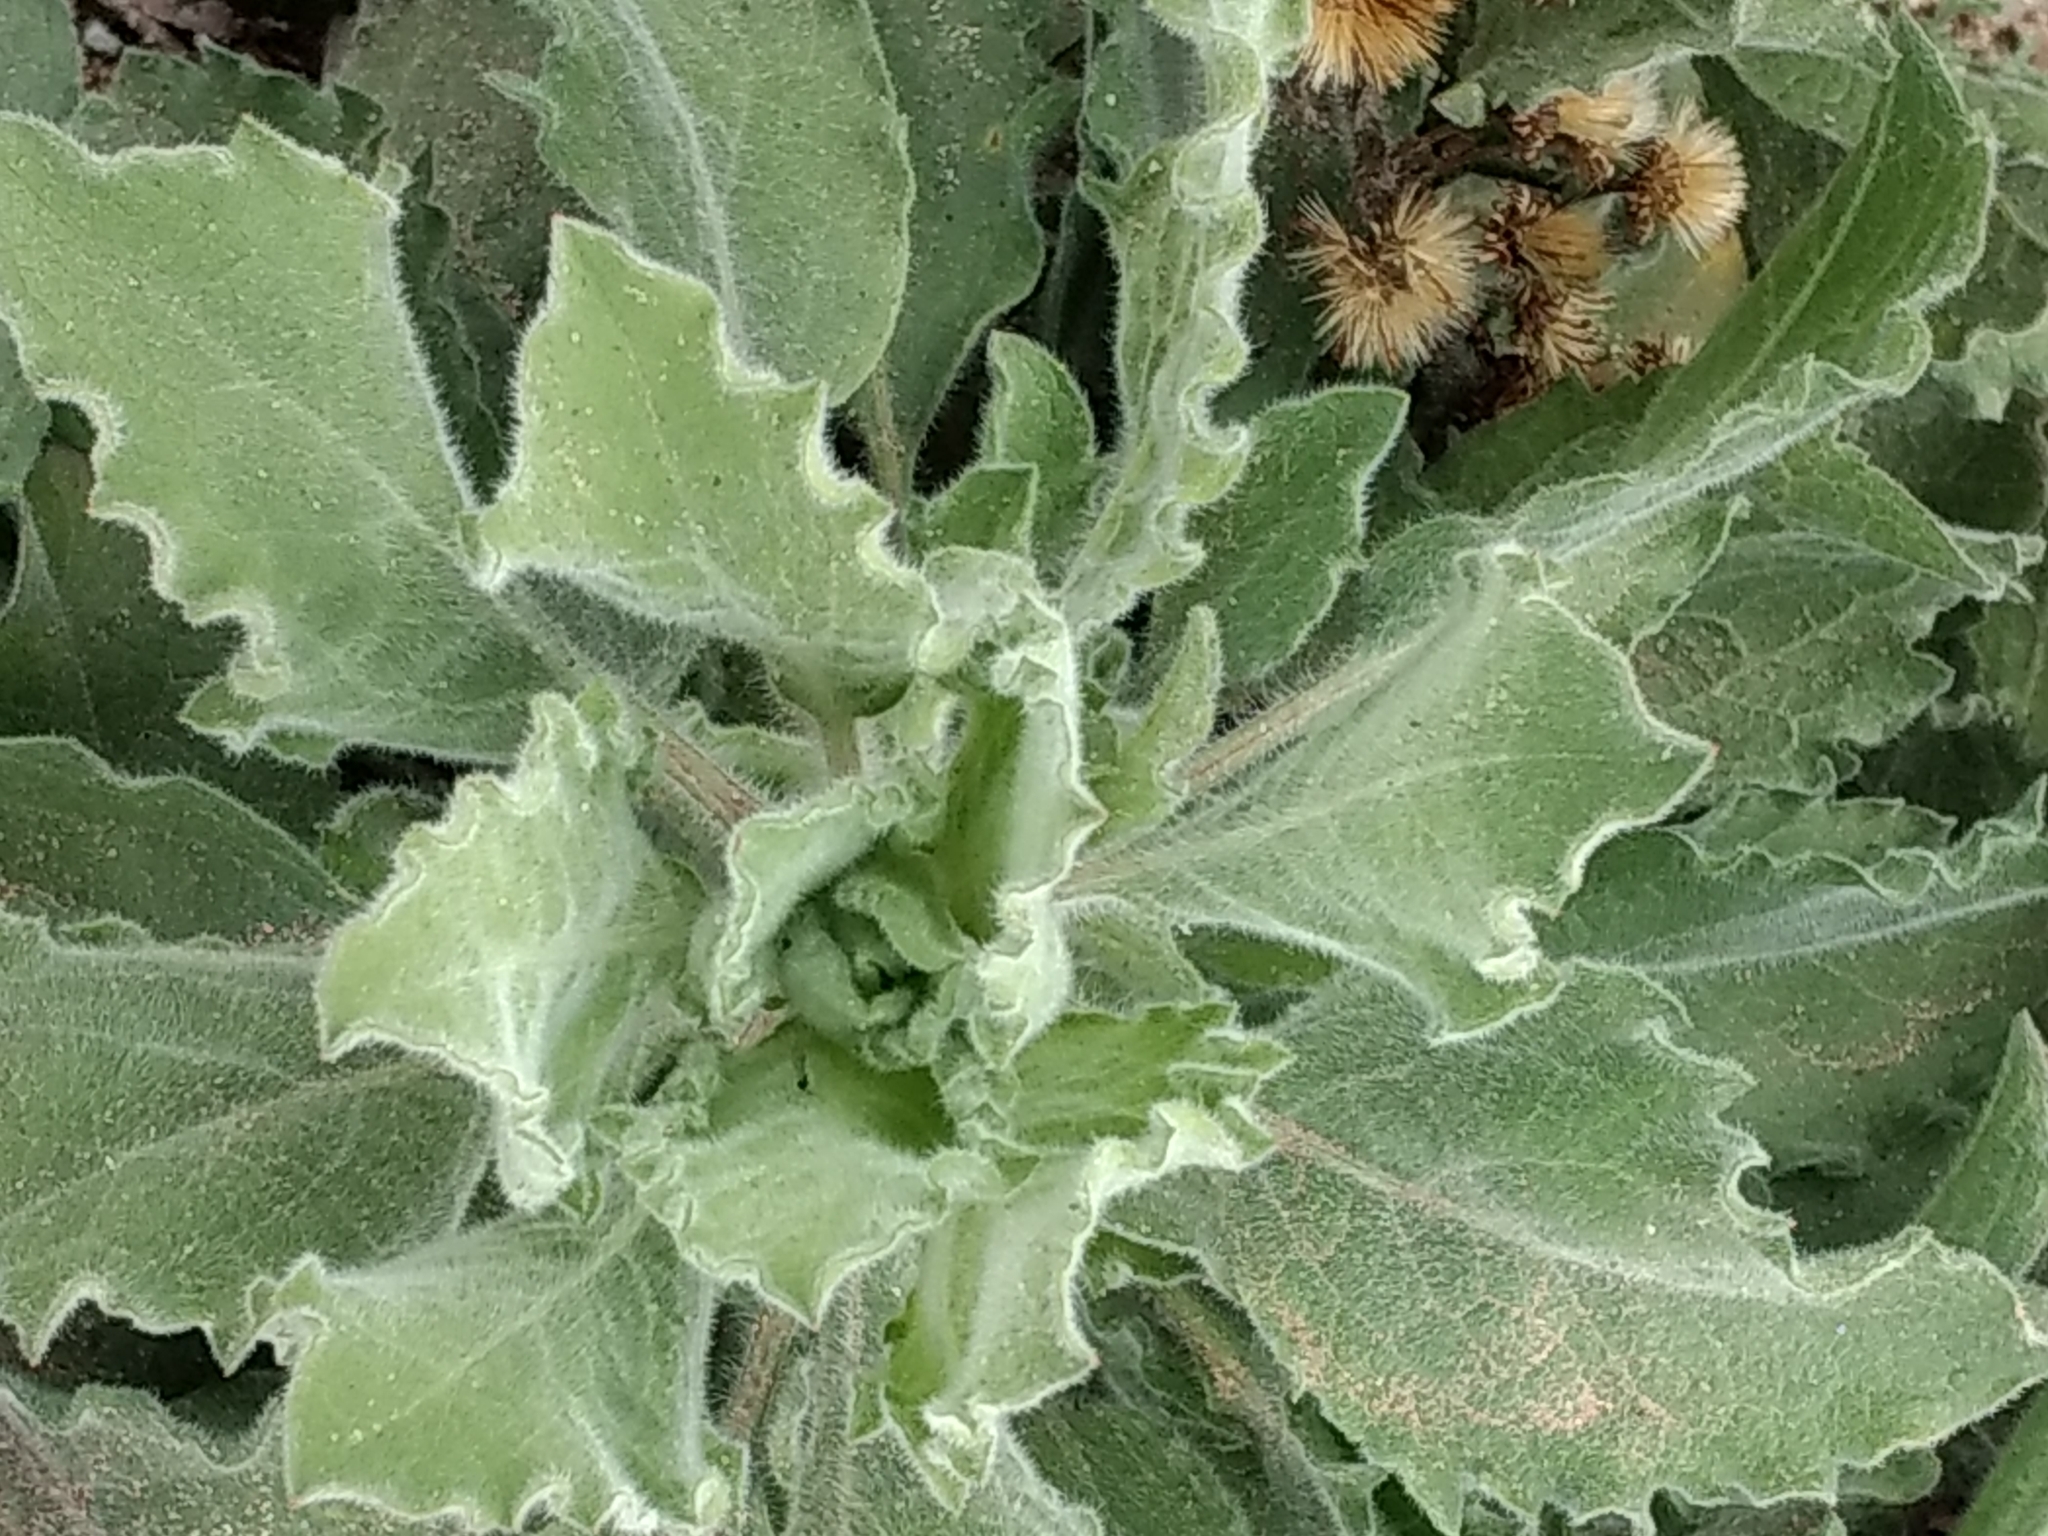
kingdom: Plantae
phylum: Tracheophyta
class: Magnoliopsida
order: Asterales
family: Asteraceae
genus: Heterotheca
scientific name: Heterotheca grandiflora
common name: Telegraphweed
